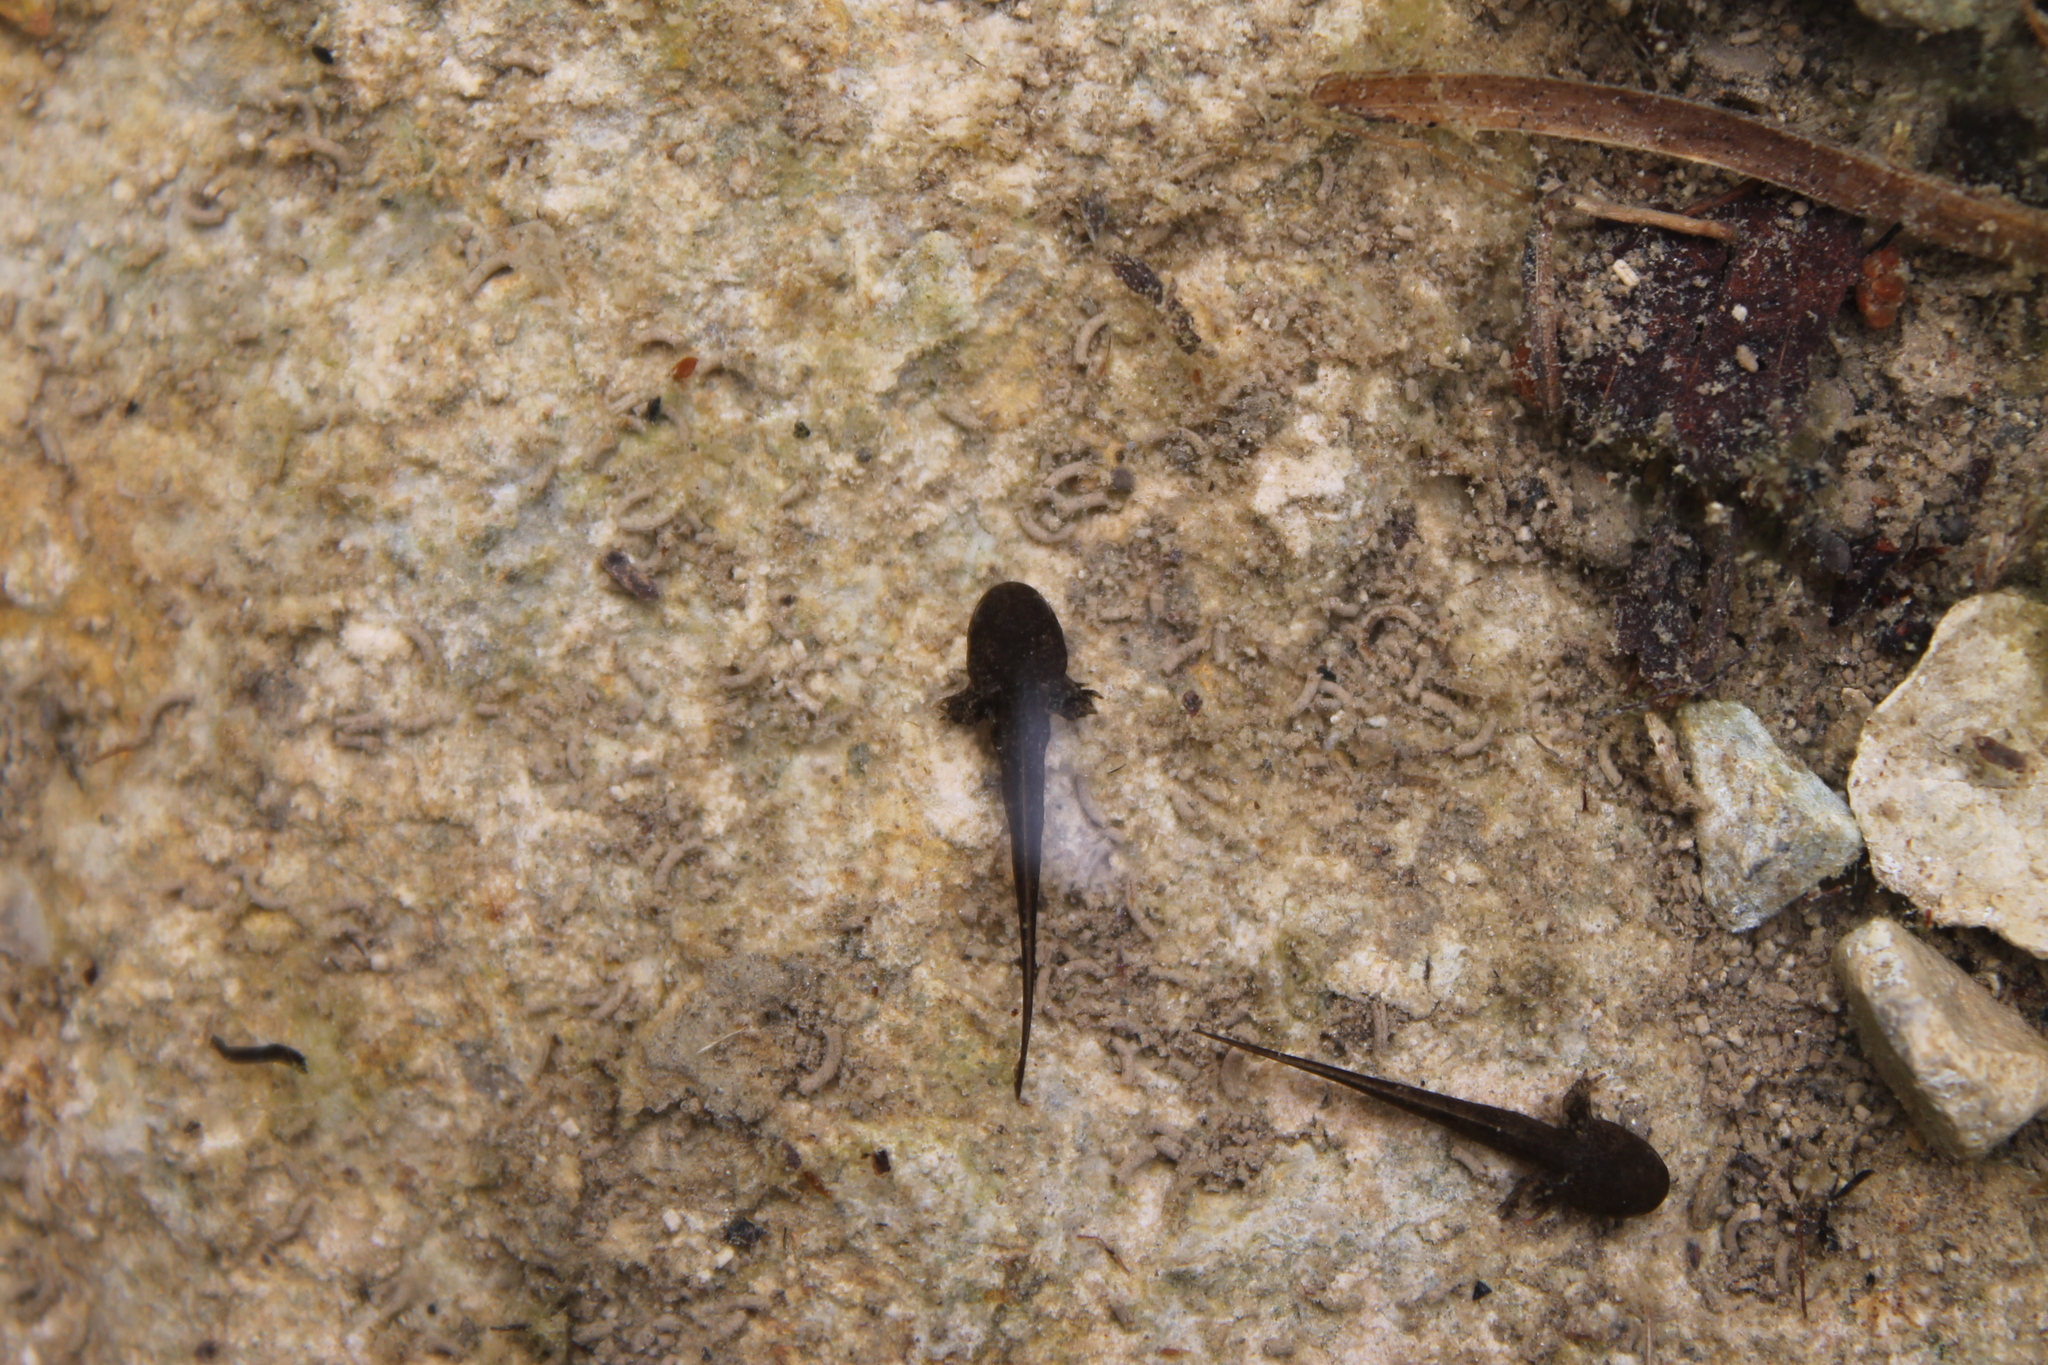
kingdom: Animalia
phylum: Chordata
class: Amphibia
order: Caudata
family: Ambystomatidae
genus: Ambystoma
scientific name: Ambystoma barbouri
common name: Streamside salamander
